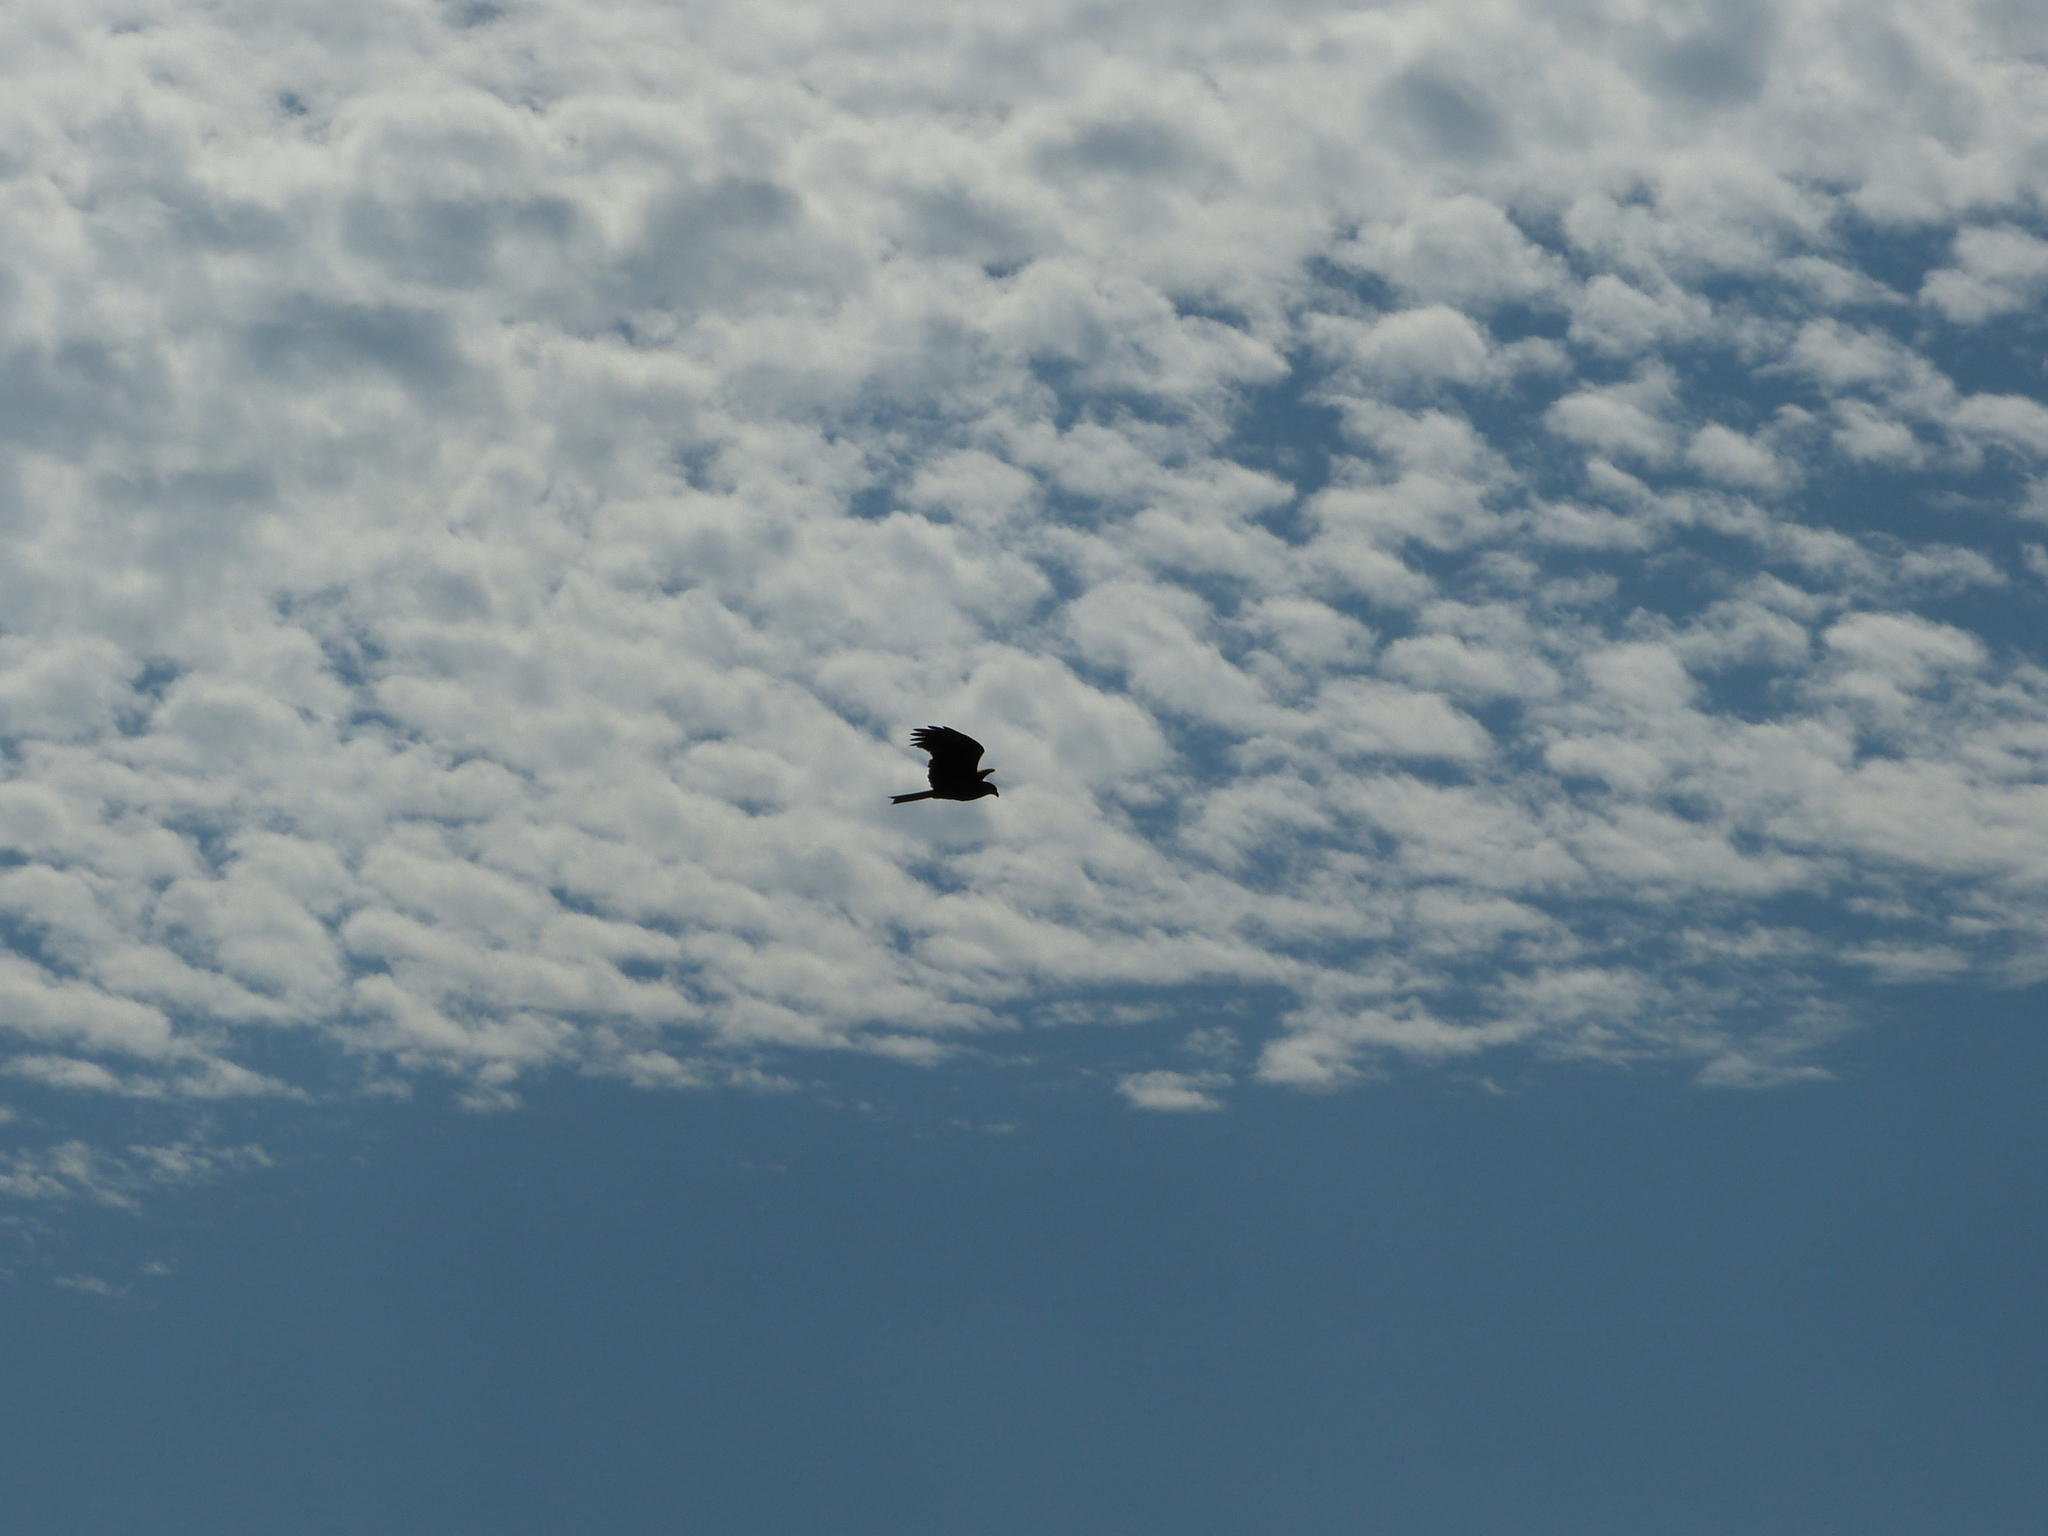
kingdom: Animalia
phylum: Chordata
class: Aves
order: Accipitriformes
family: Accipitridae
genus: Milvus
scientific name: Milvus migrans
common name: Black kite
